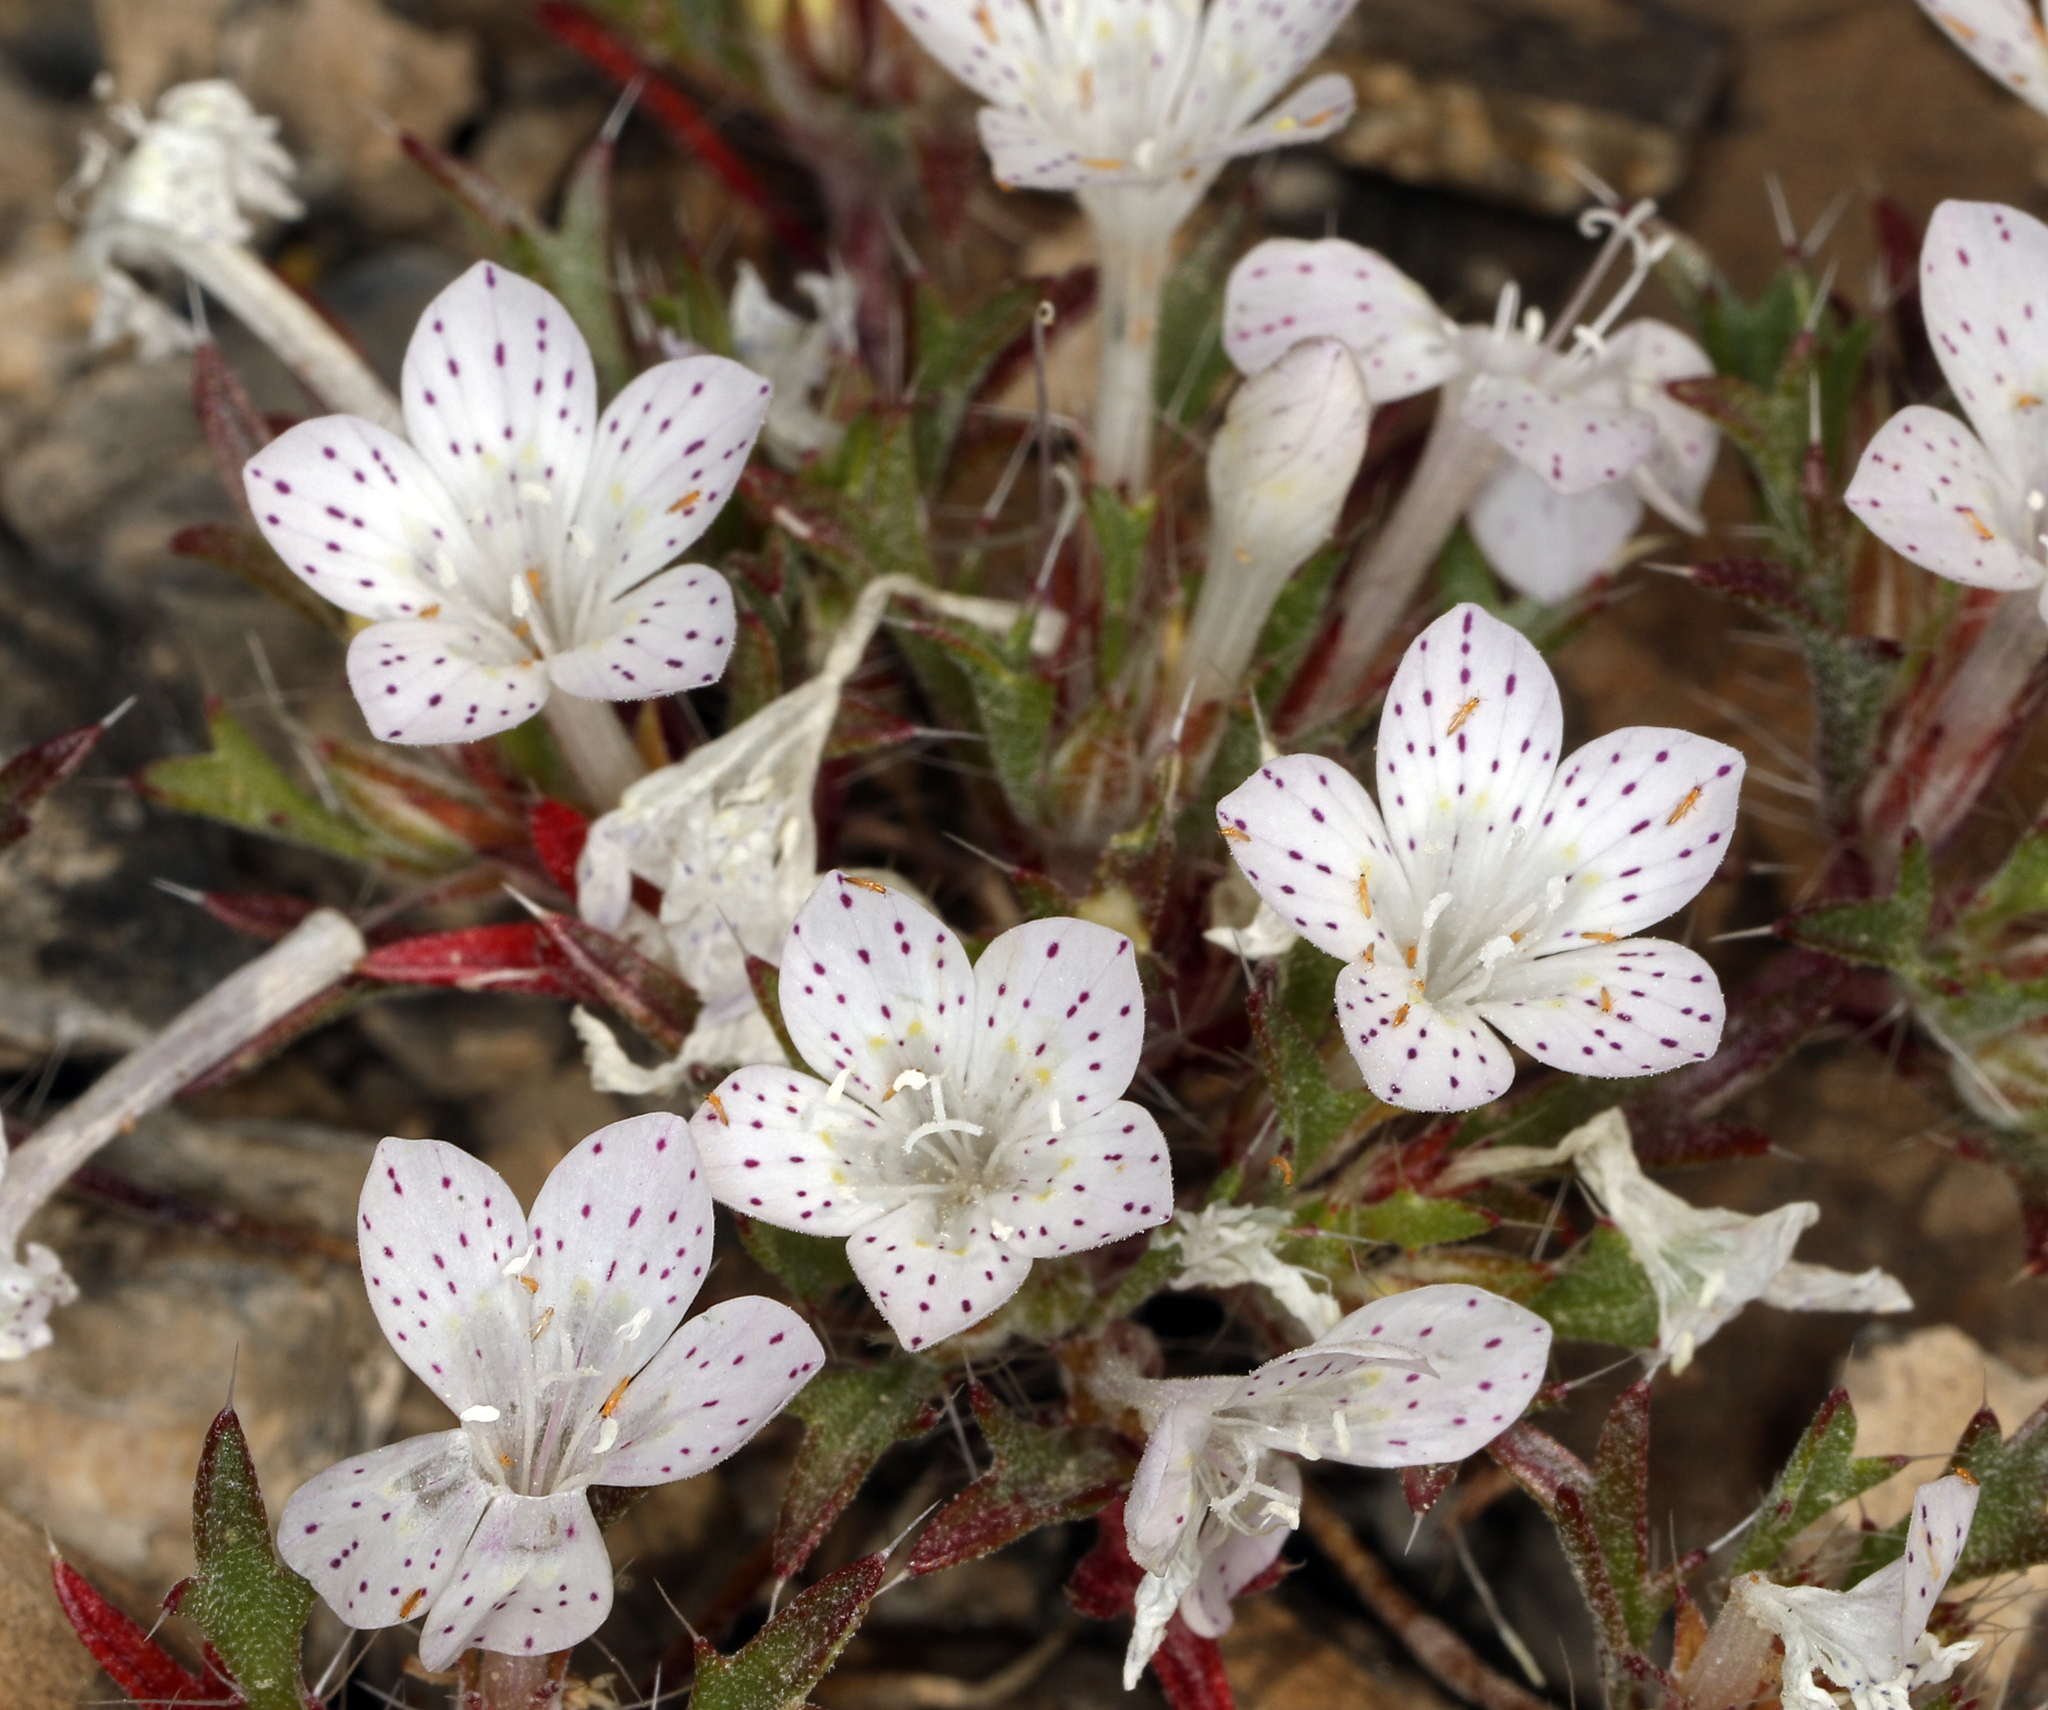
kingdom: Plantae
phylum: Tracheophyta
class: Magnoliopsida
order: Ericales
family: Polemoniaceae
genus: Langloisia
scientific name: Langloisia setosissima
